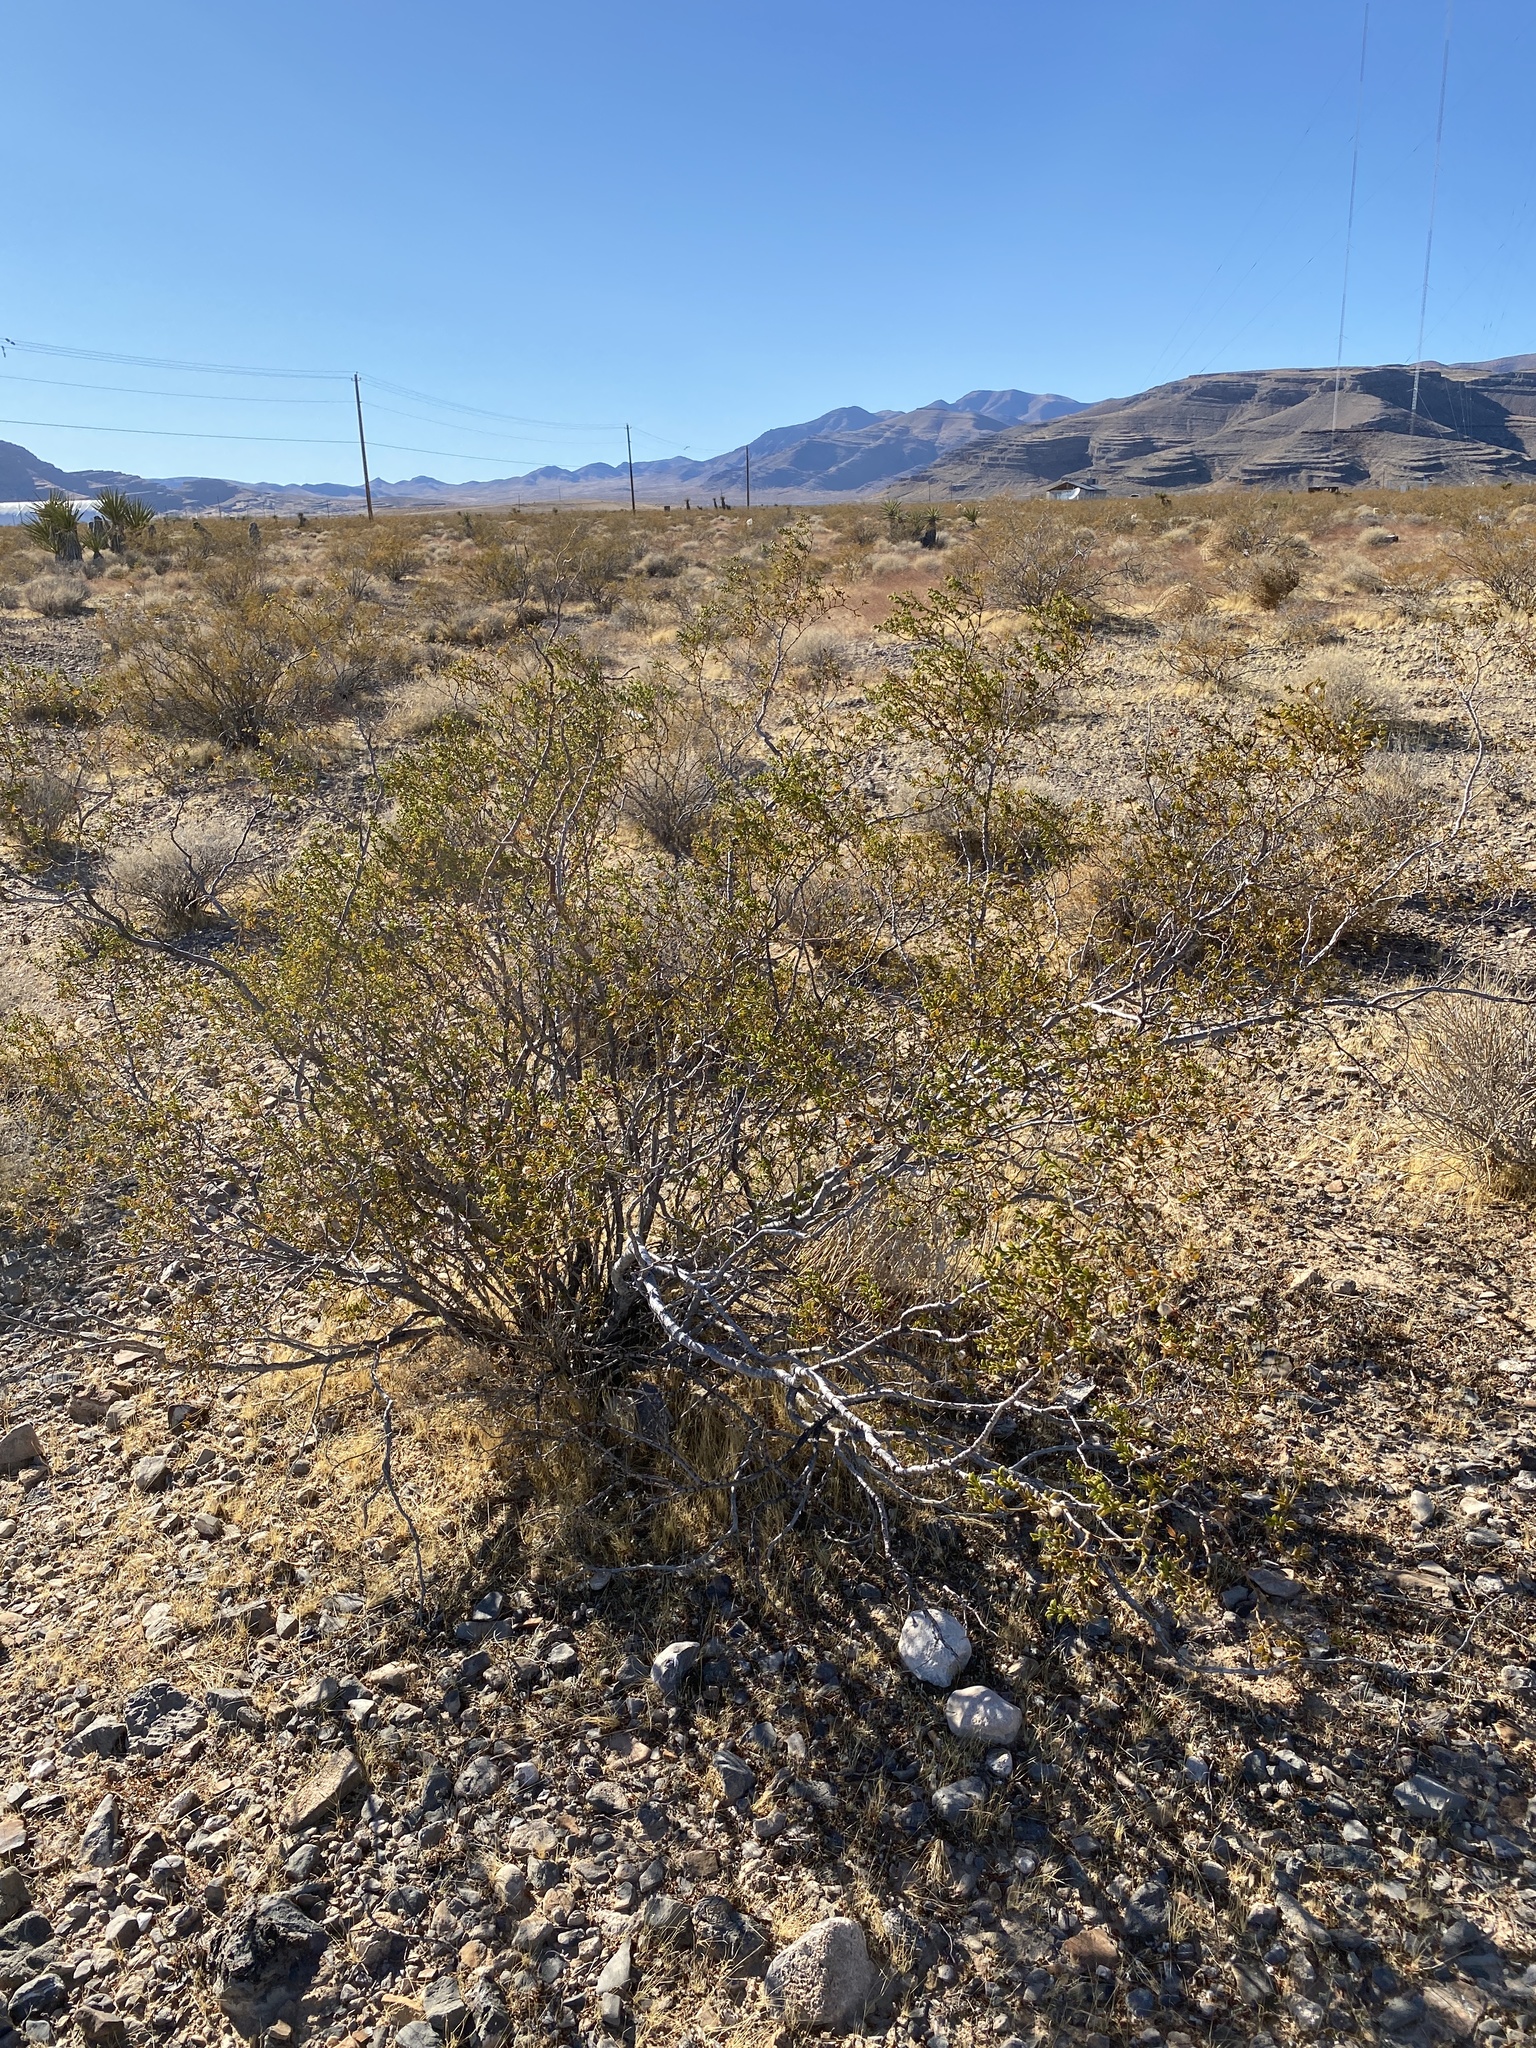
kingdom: Plantae
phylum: Tracheophyta
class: Magnoliopsida
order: Zygophyllales
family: Zygophyllaceae
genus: Larrea
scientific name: Larrea tridentata
